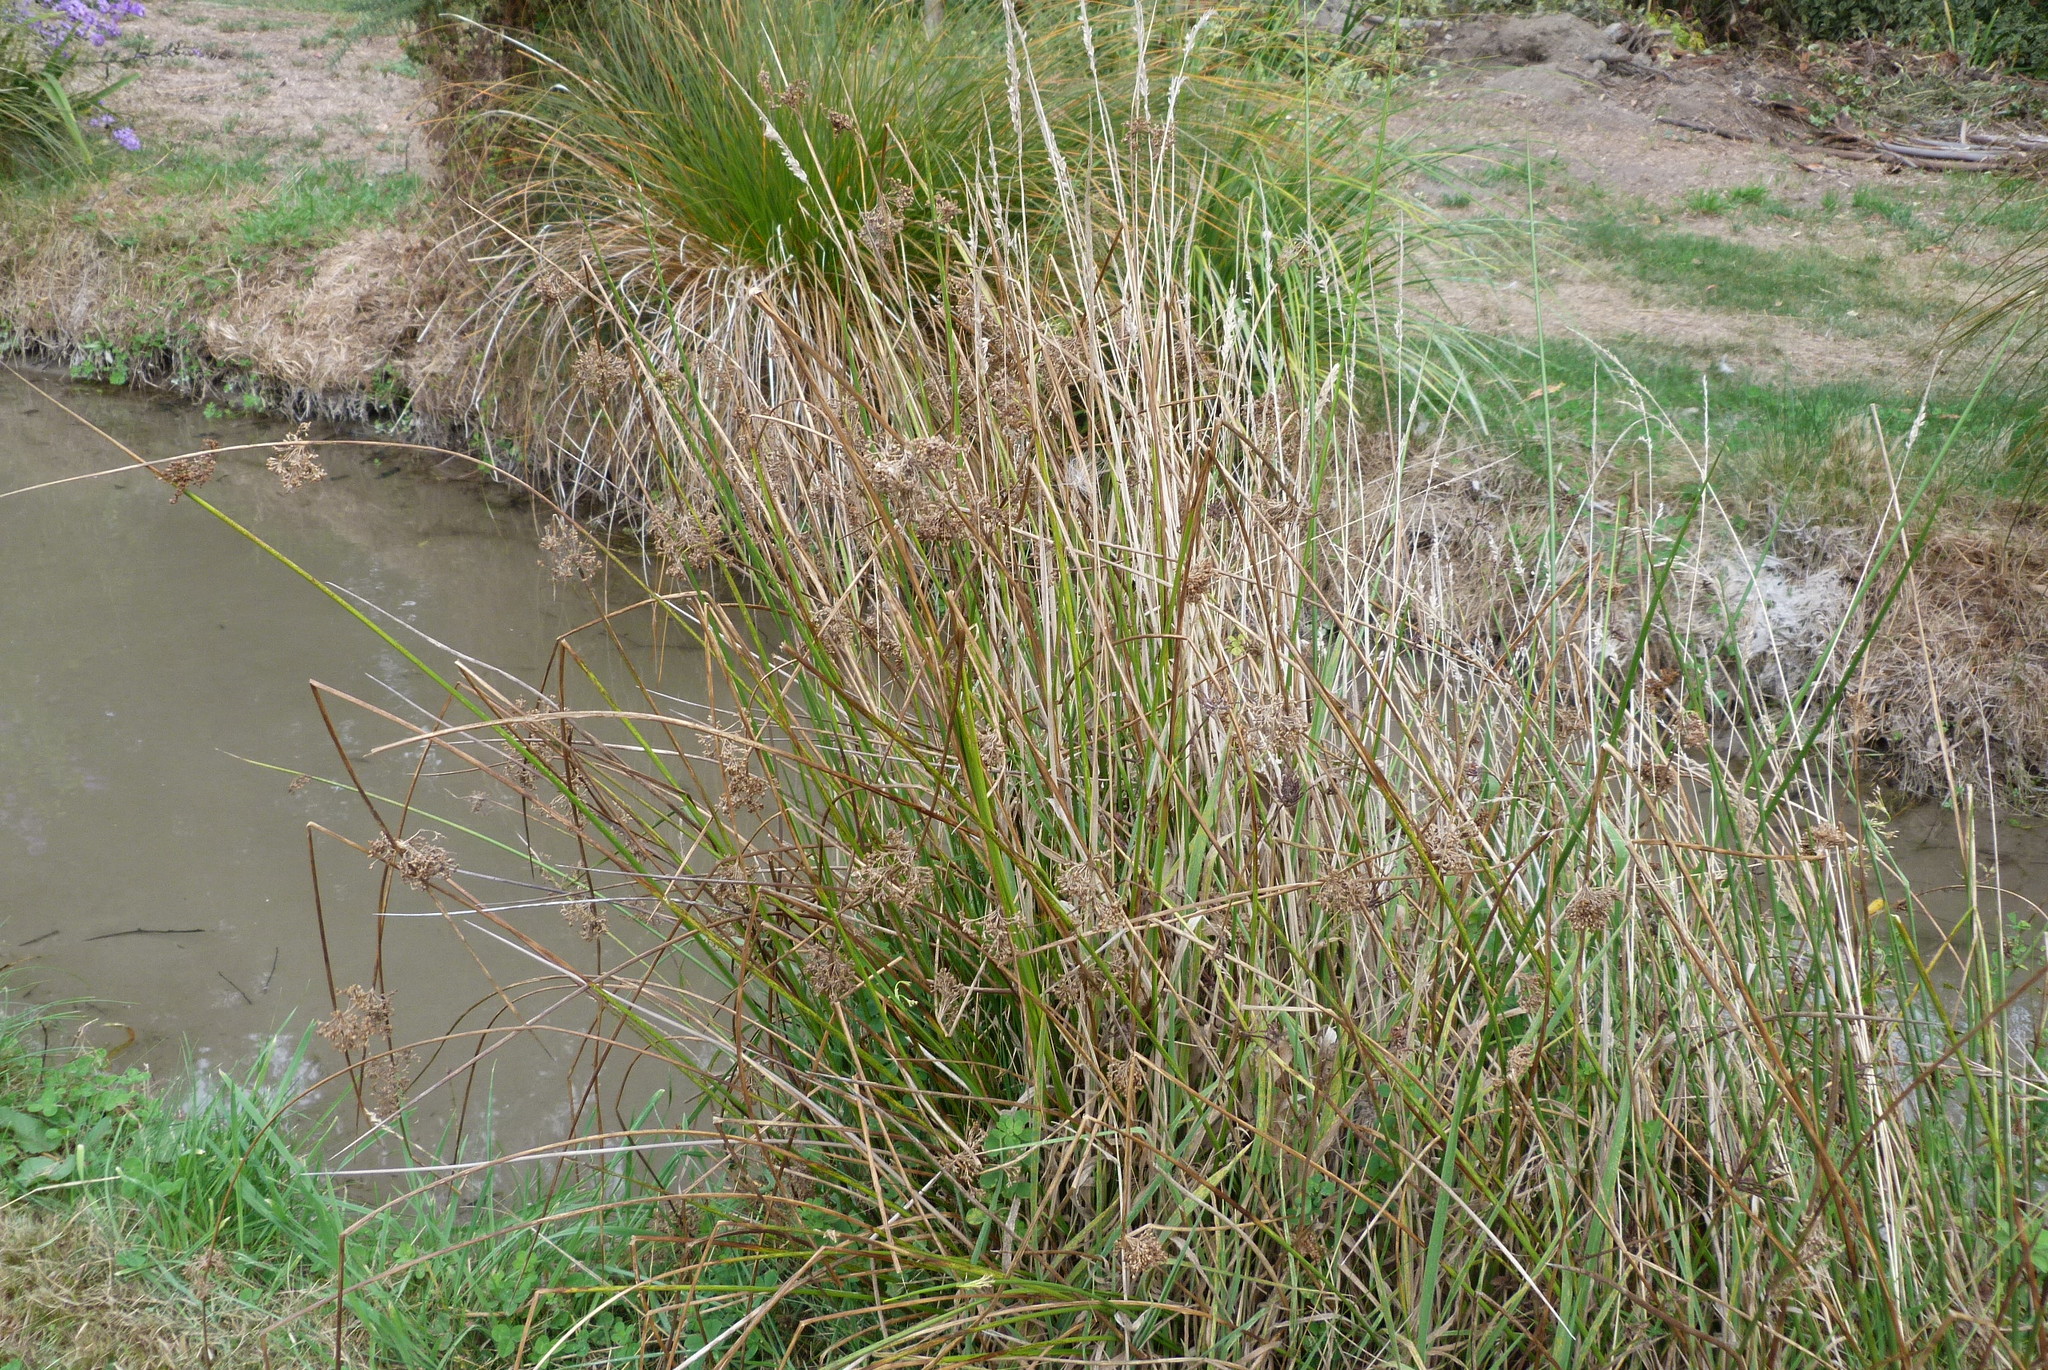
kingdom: Plantae
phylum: Tracheophyta
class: Liliopsida
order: Poales
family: Juncaceae
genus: Juncus
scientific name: Juncus effusus
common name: Soft rush
